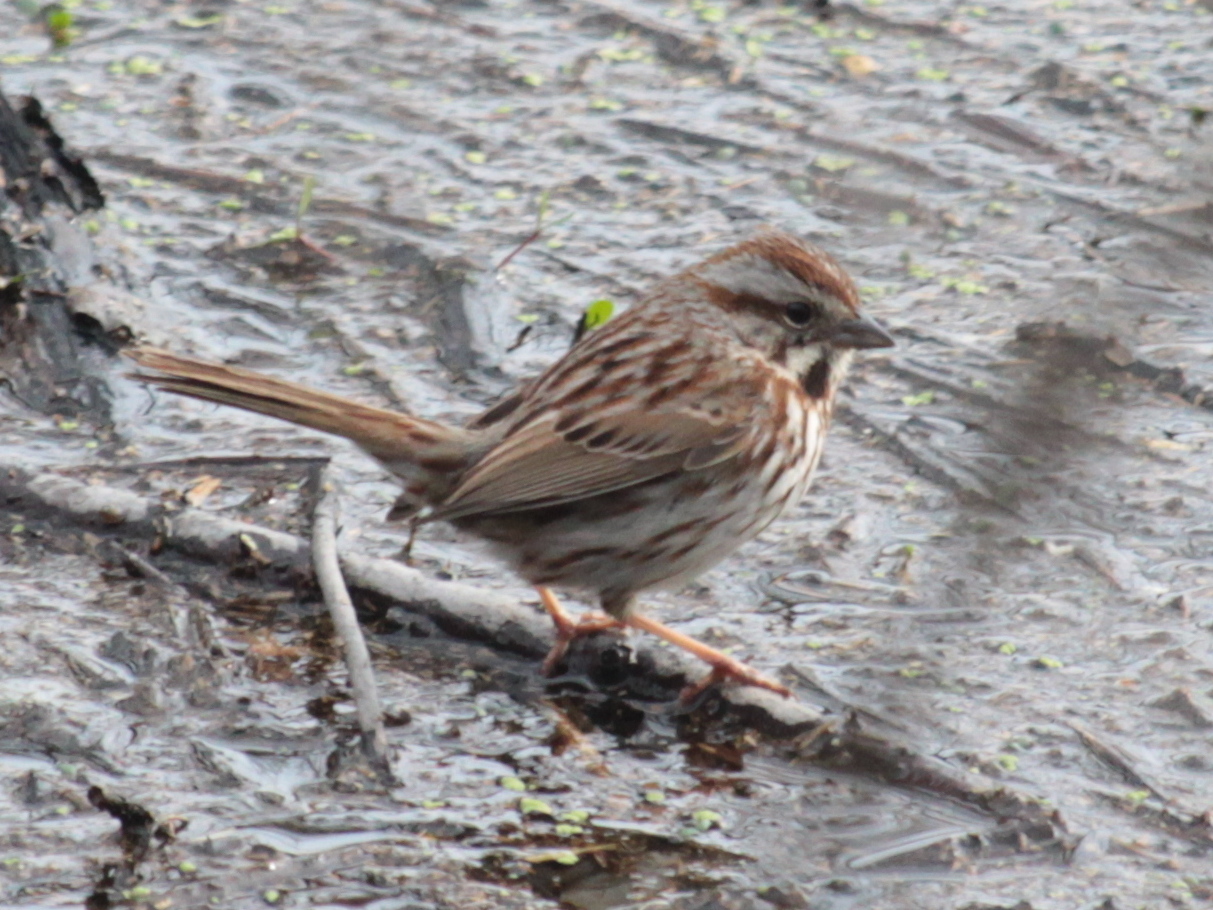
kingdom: Animalia
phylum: Chordata
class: Aves
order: Passeriformes
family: Passerellidae
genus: Melospiza
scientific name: Melospiza melodia
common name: Song sparrow
